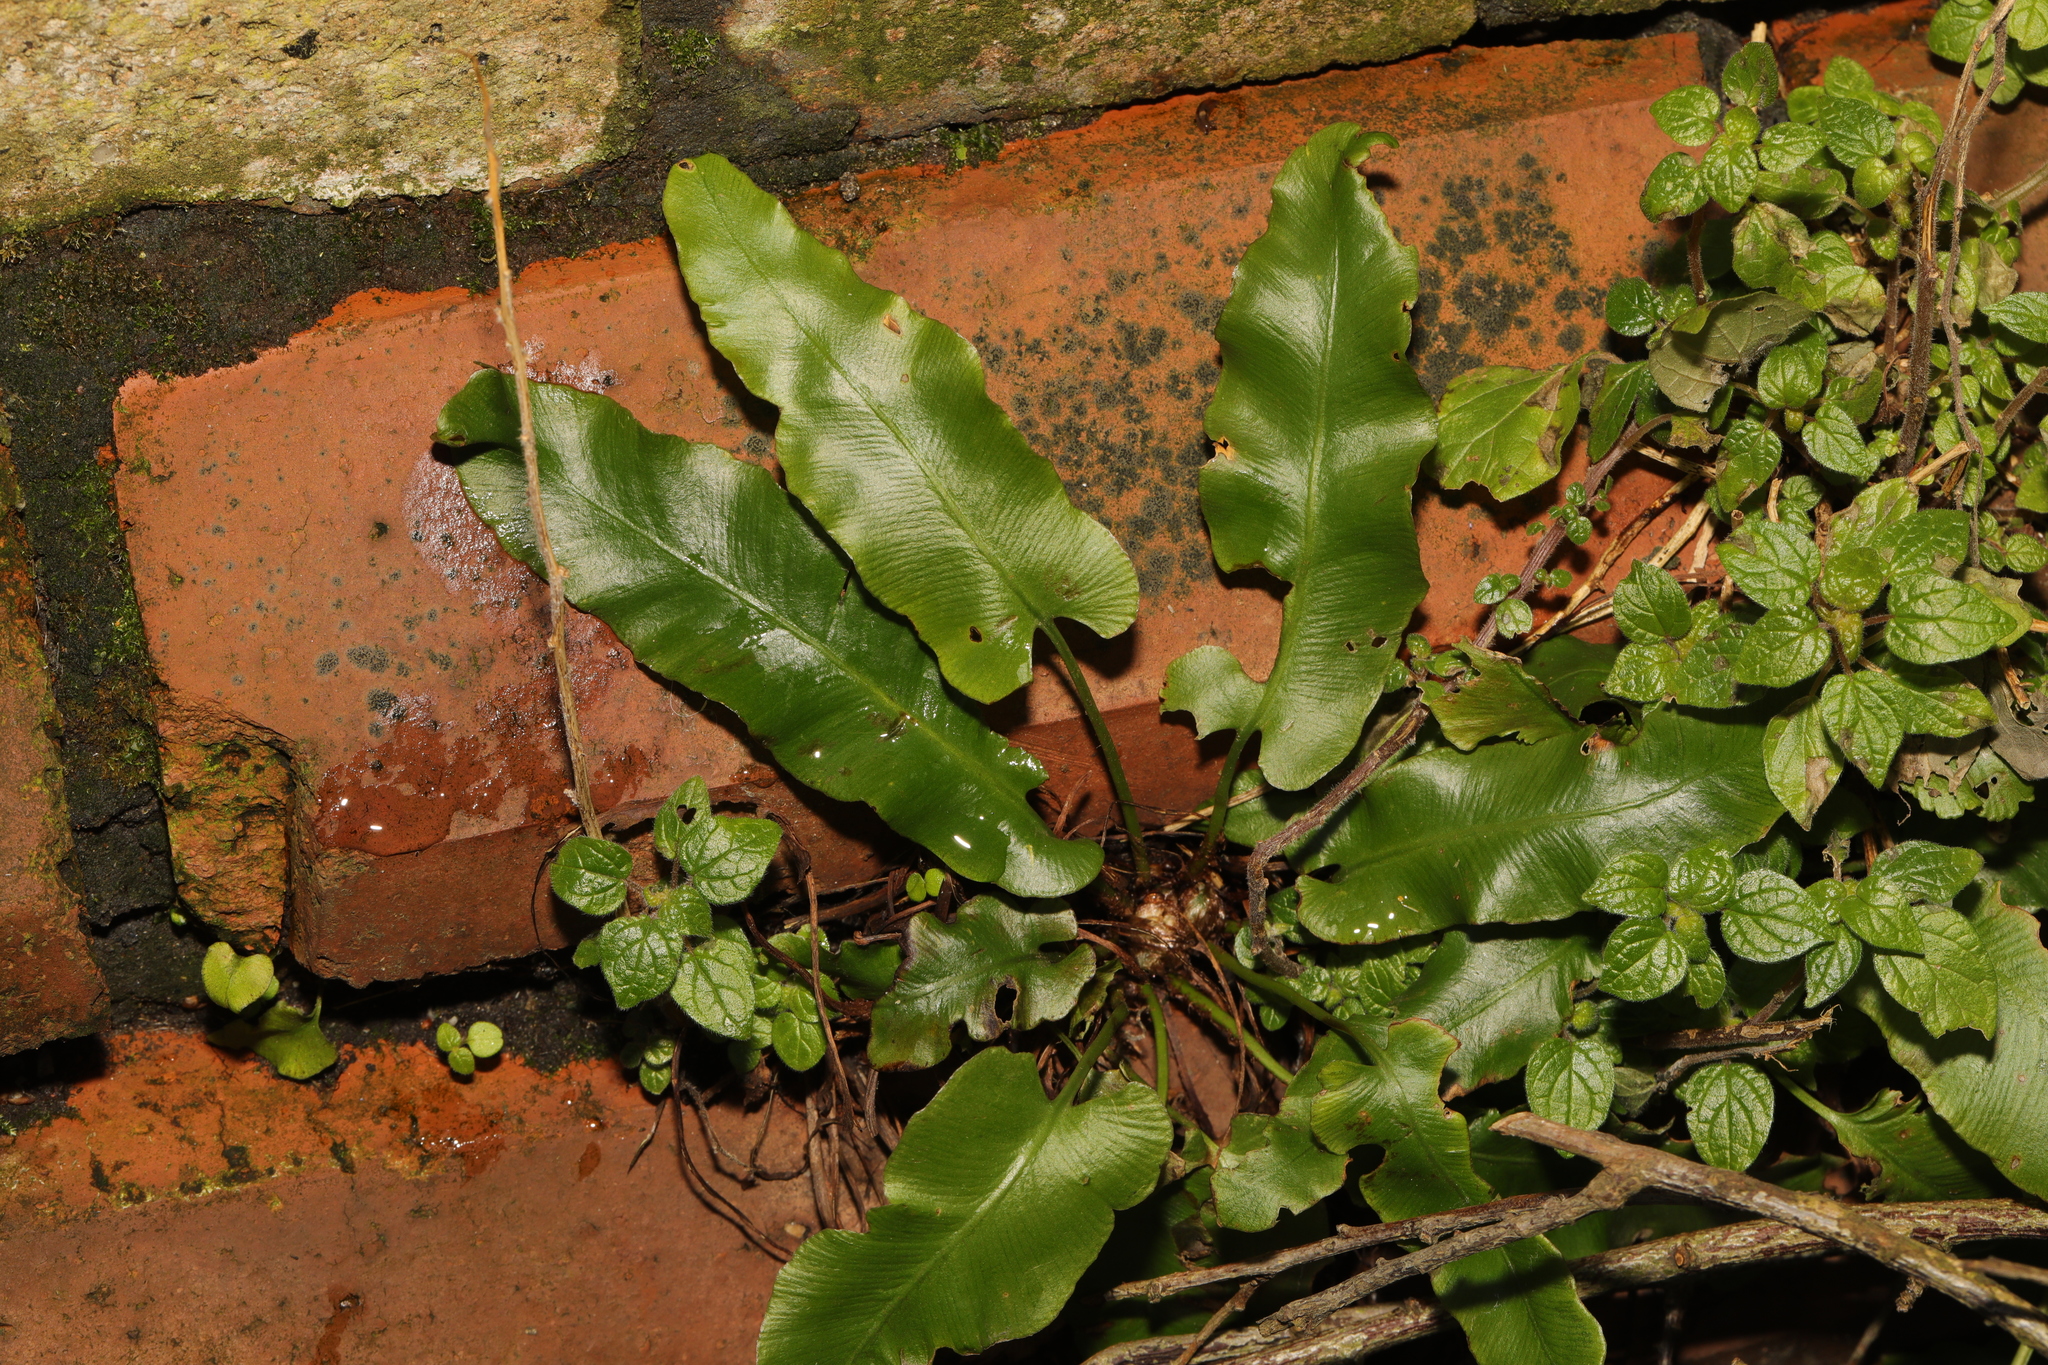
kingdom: Plantae
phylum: Tracheophyta
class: Polypodiopsida
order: Polypodiales
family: Aspleniaceae
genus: Asplenium
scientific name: Asplenium scolopendrium
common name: Hart's-tongue fern
